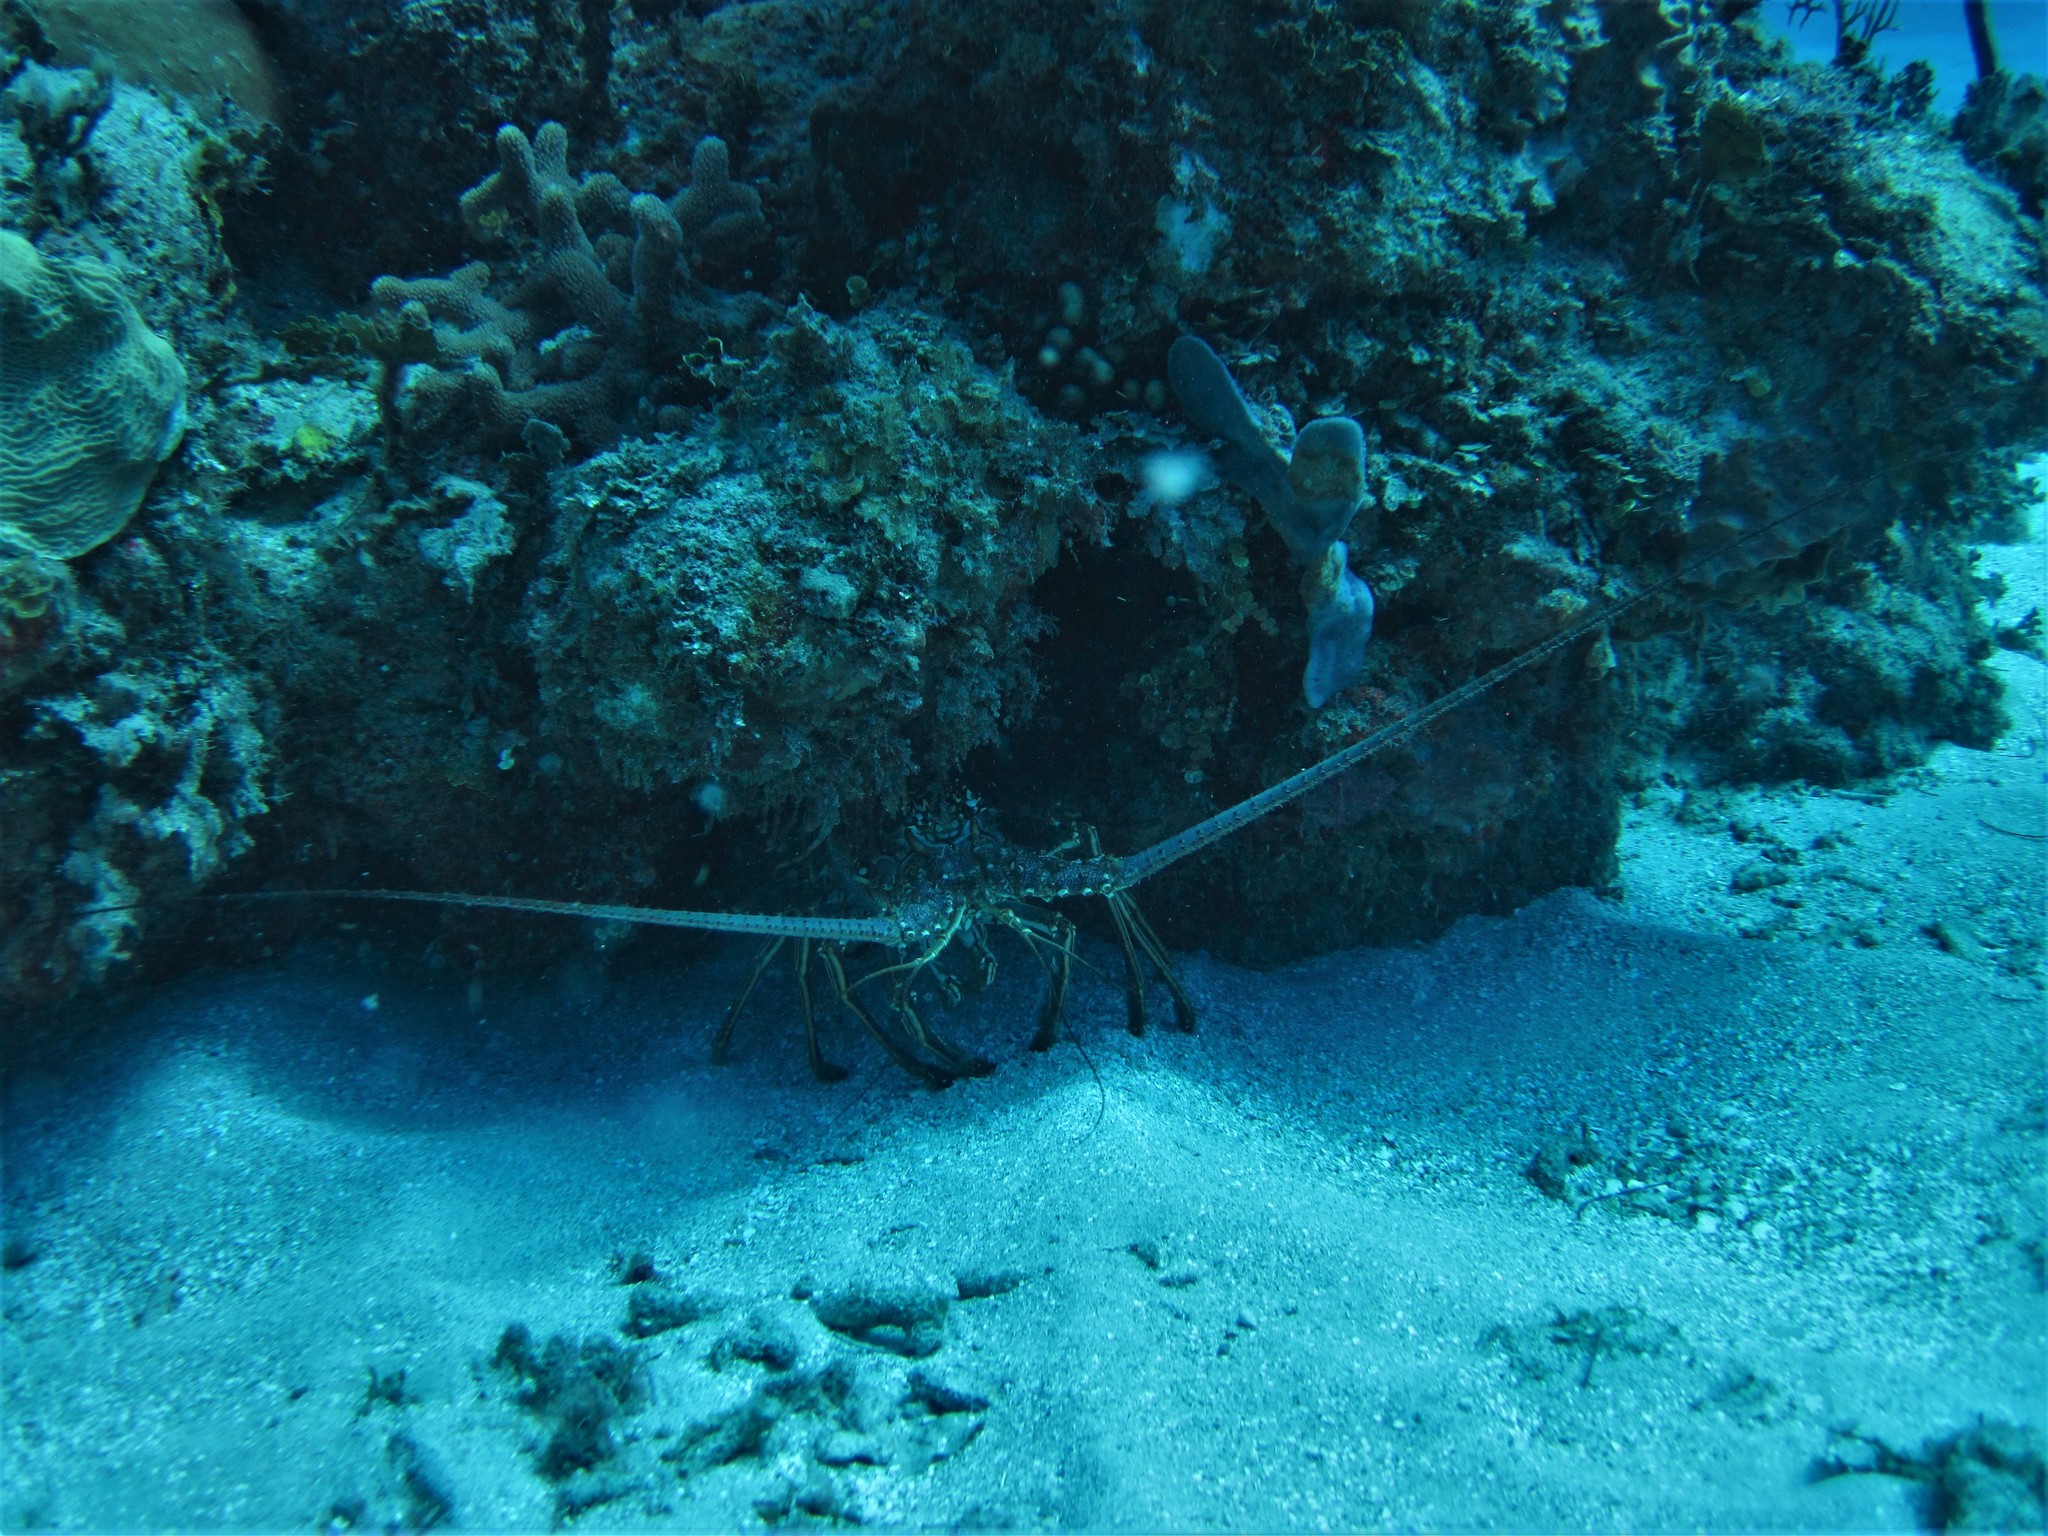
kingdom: Animalia
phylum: Arthropoda
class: Malacostraca
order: Decapoda
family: Palinuridae
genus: Panulirus
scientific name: Panulirus argus
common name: Caribbean spiny lobster
